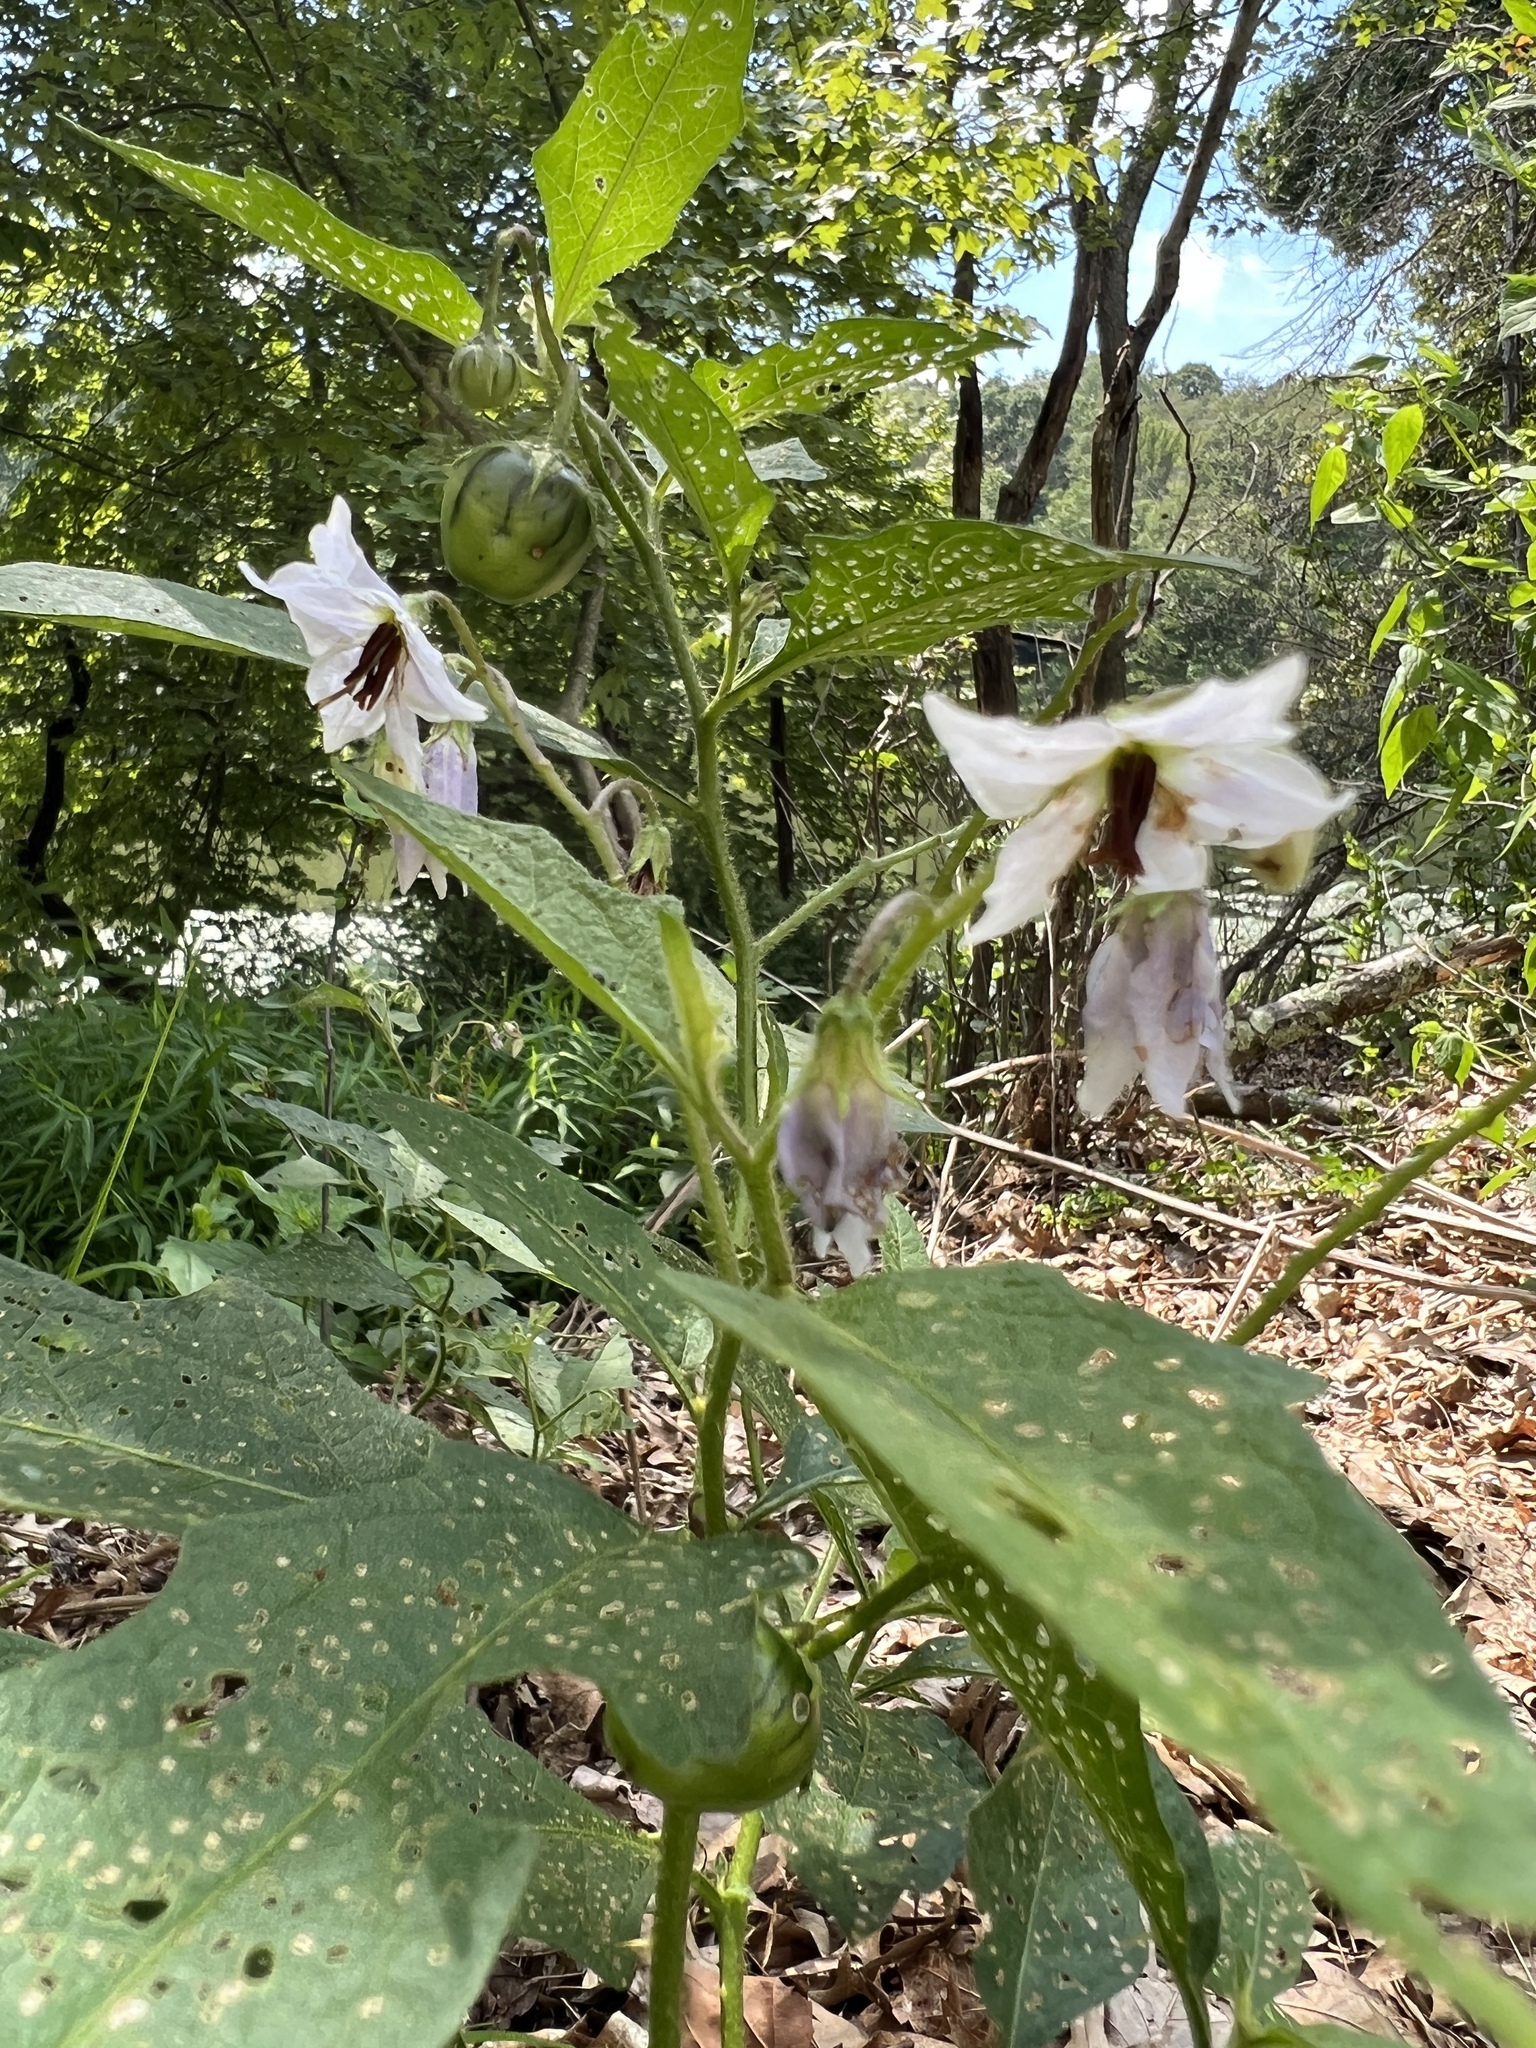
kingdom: Plantae
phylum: Tracheophyta
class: Magnoliopsida
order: Solanales
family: Solanaceae
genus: Solanum
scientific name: Solanum carolinense
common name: Horse-nettle
